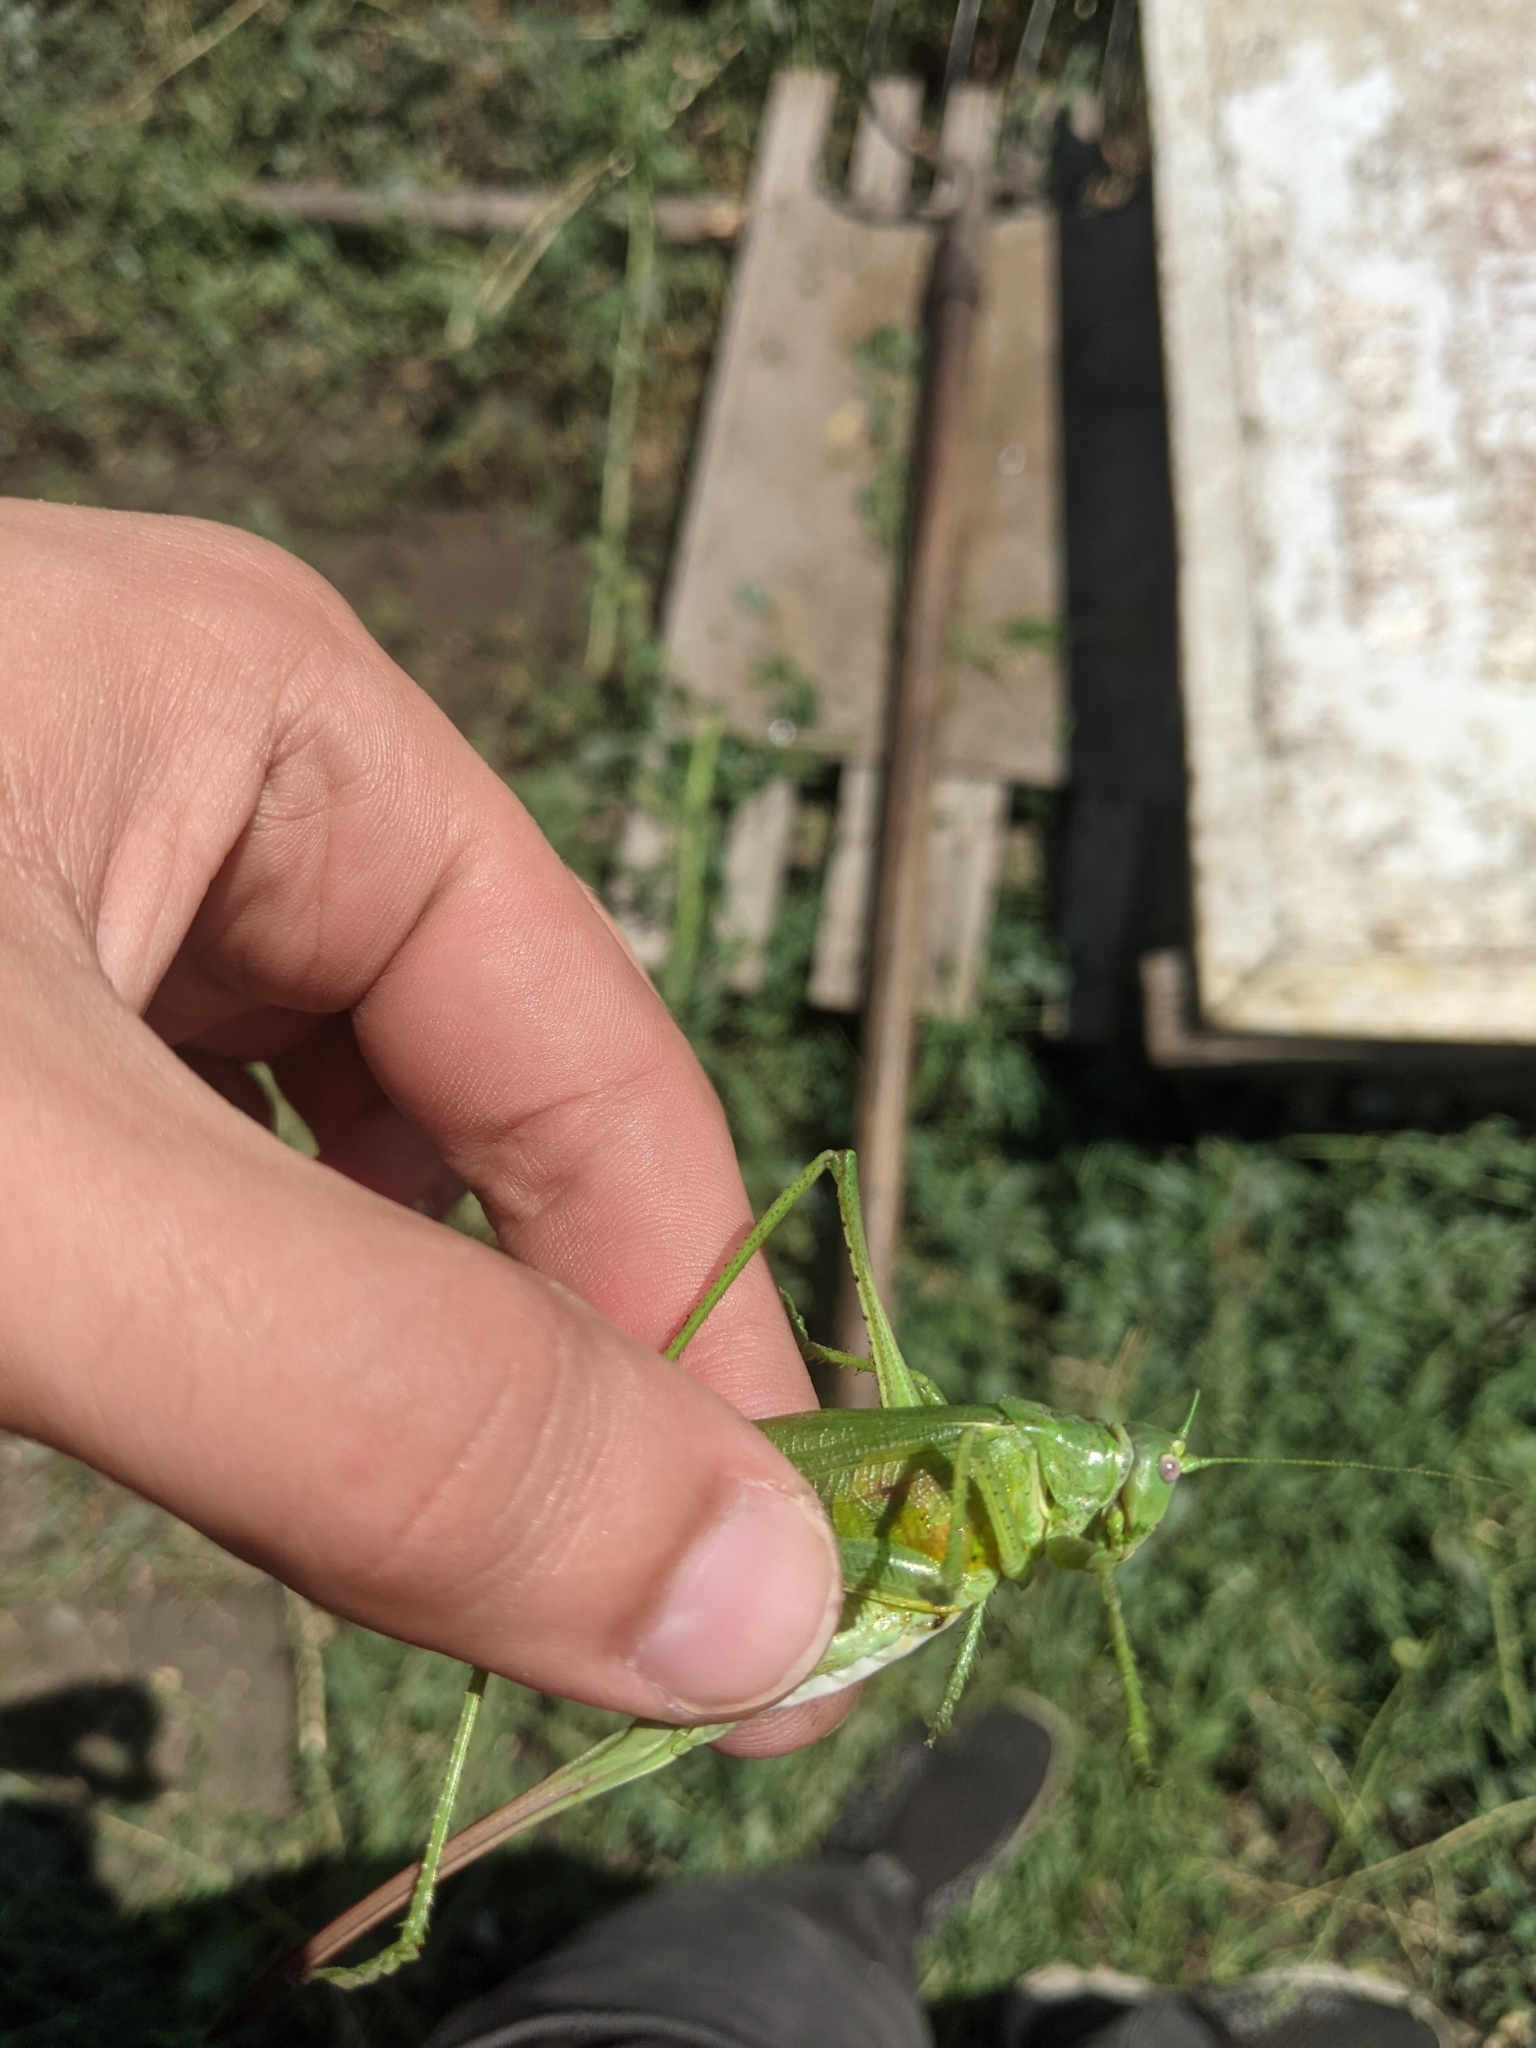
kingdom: Animalia
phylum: Arthropoda
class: Insecta
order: Orthoptera
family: Tettigoniidae
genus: Tettigonia
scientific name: Tettigonia caudata
